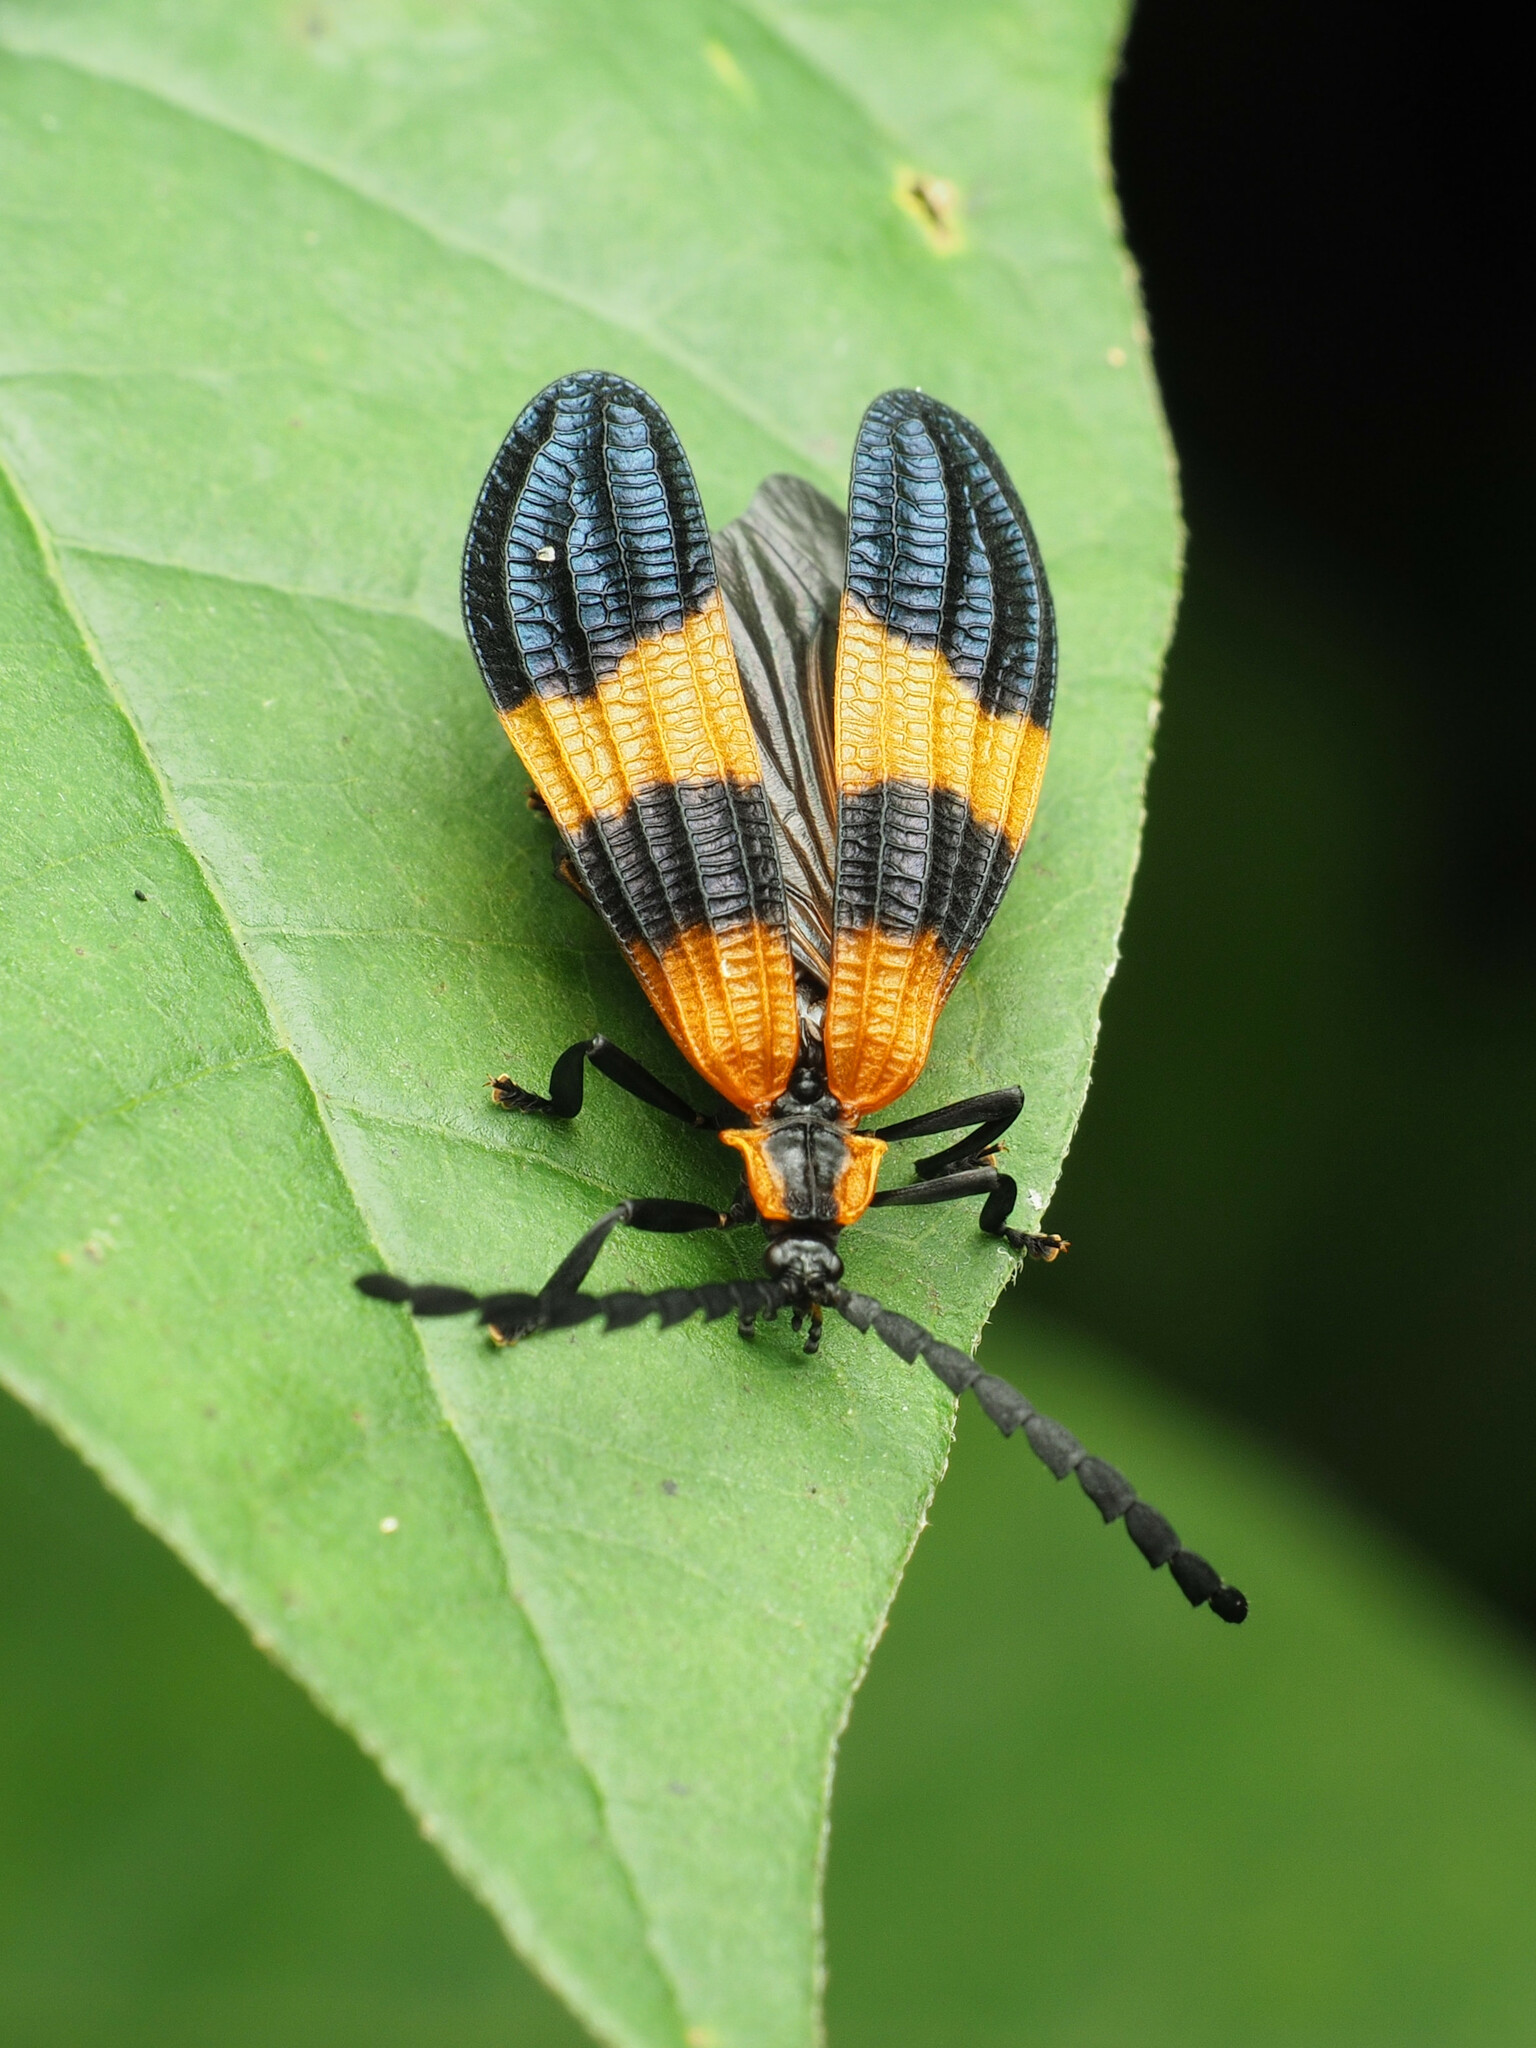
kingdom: Animalia
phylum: Arthropoda
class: Insecta
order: Coleoptera
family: Lycidae
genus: Calopteron
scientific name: Calopteron terminale
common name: End band net-winged beetle
